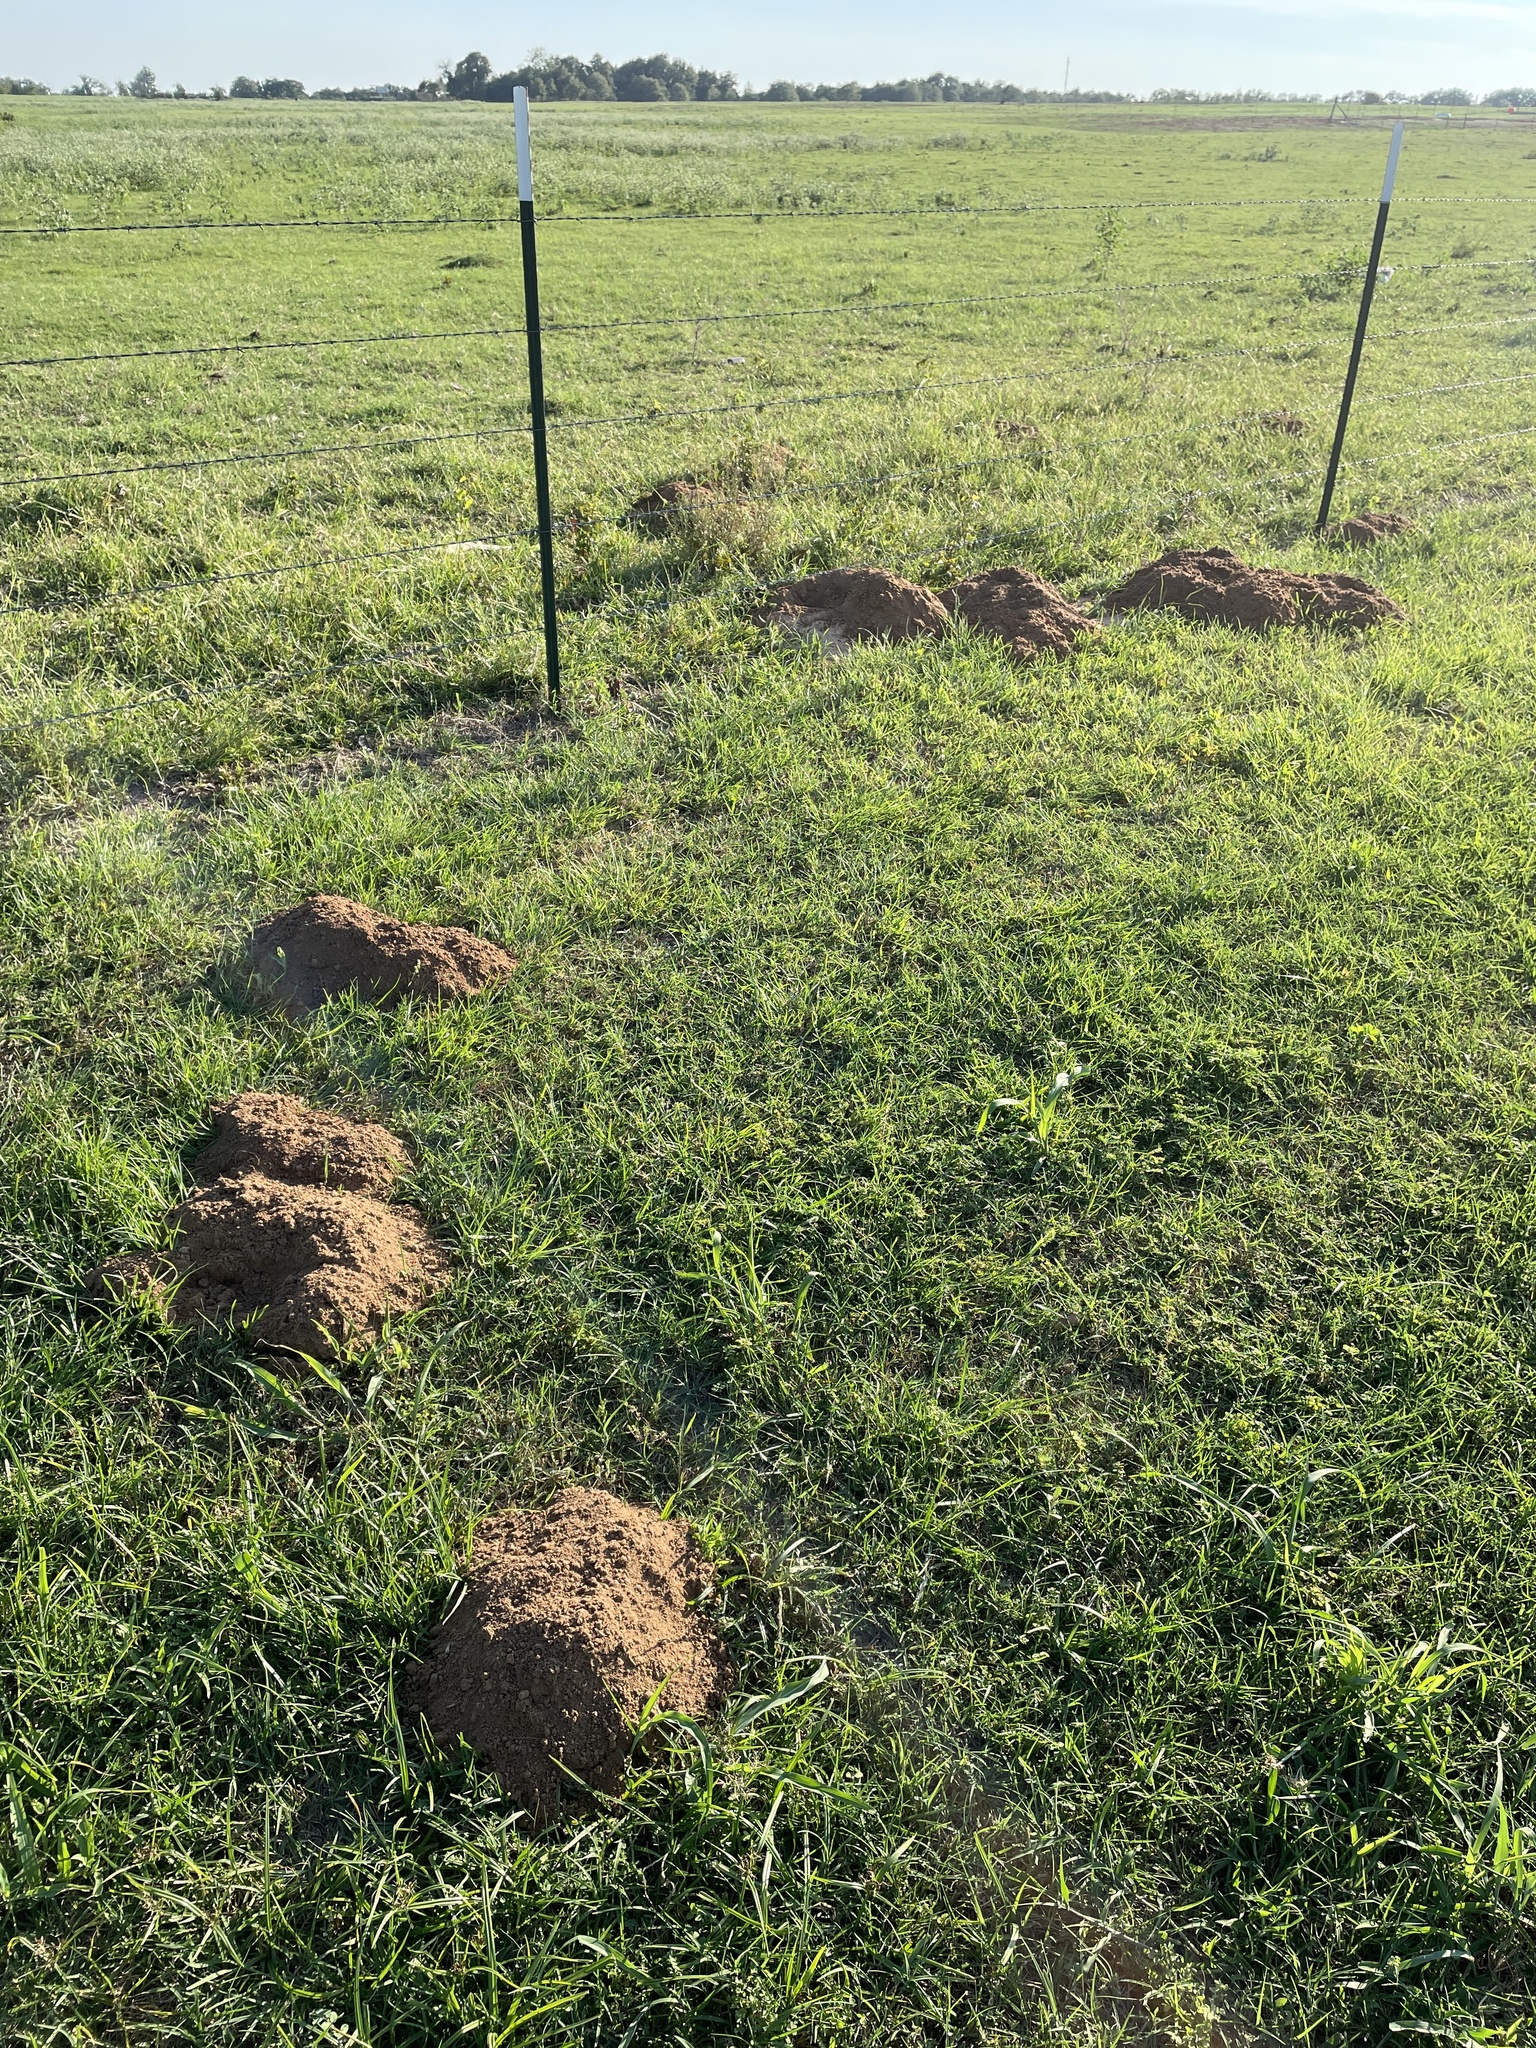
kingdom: Animalia
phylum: Chordata
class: Mammalia
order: Rodentia
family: Geomyidae
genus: Geomys
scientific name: Geomys bursarius
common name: Plains pocket gopher
